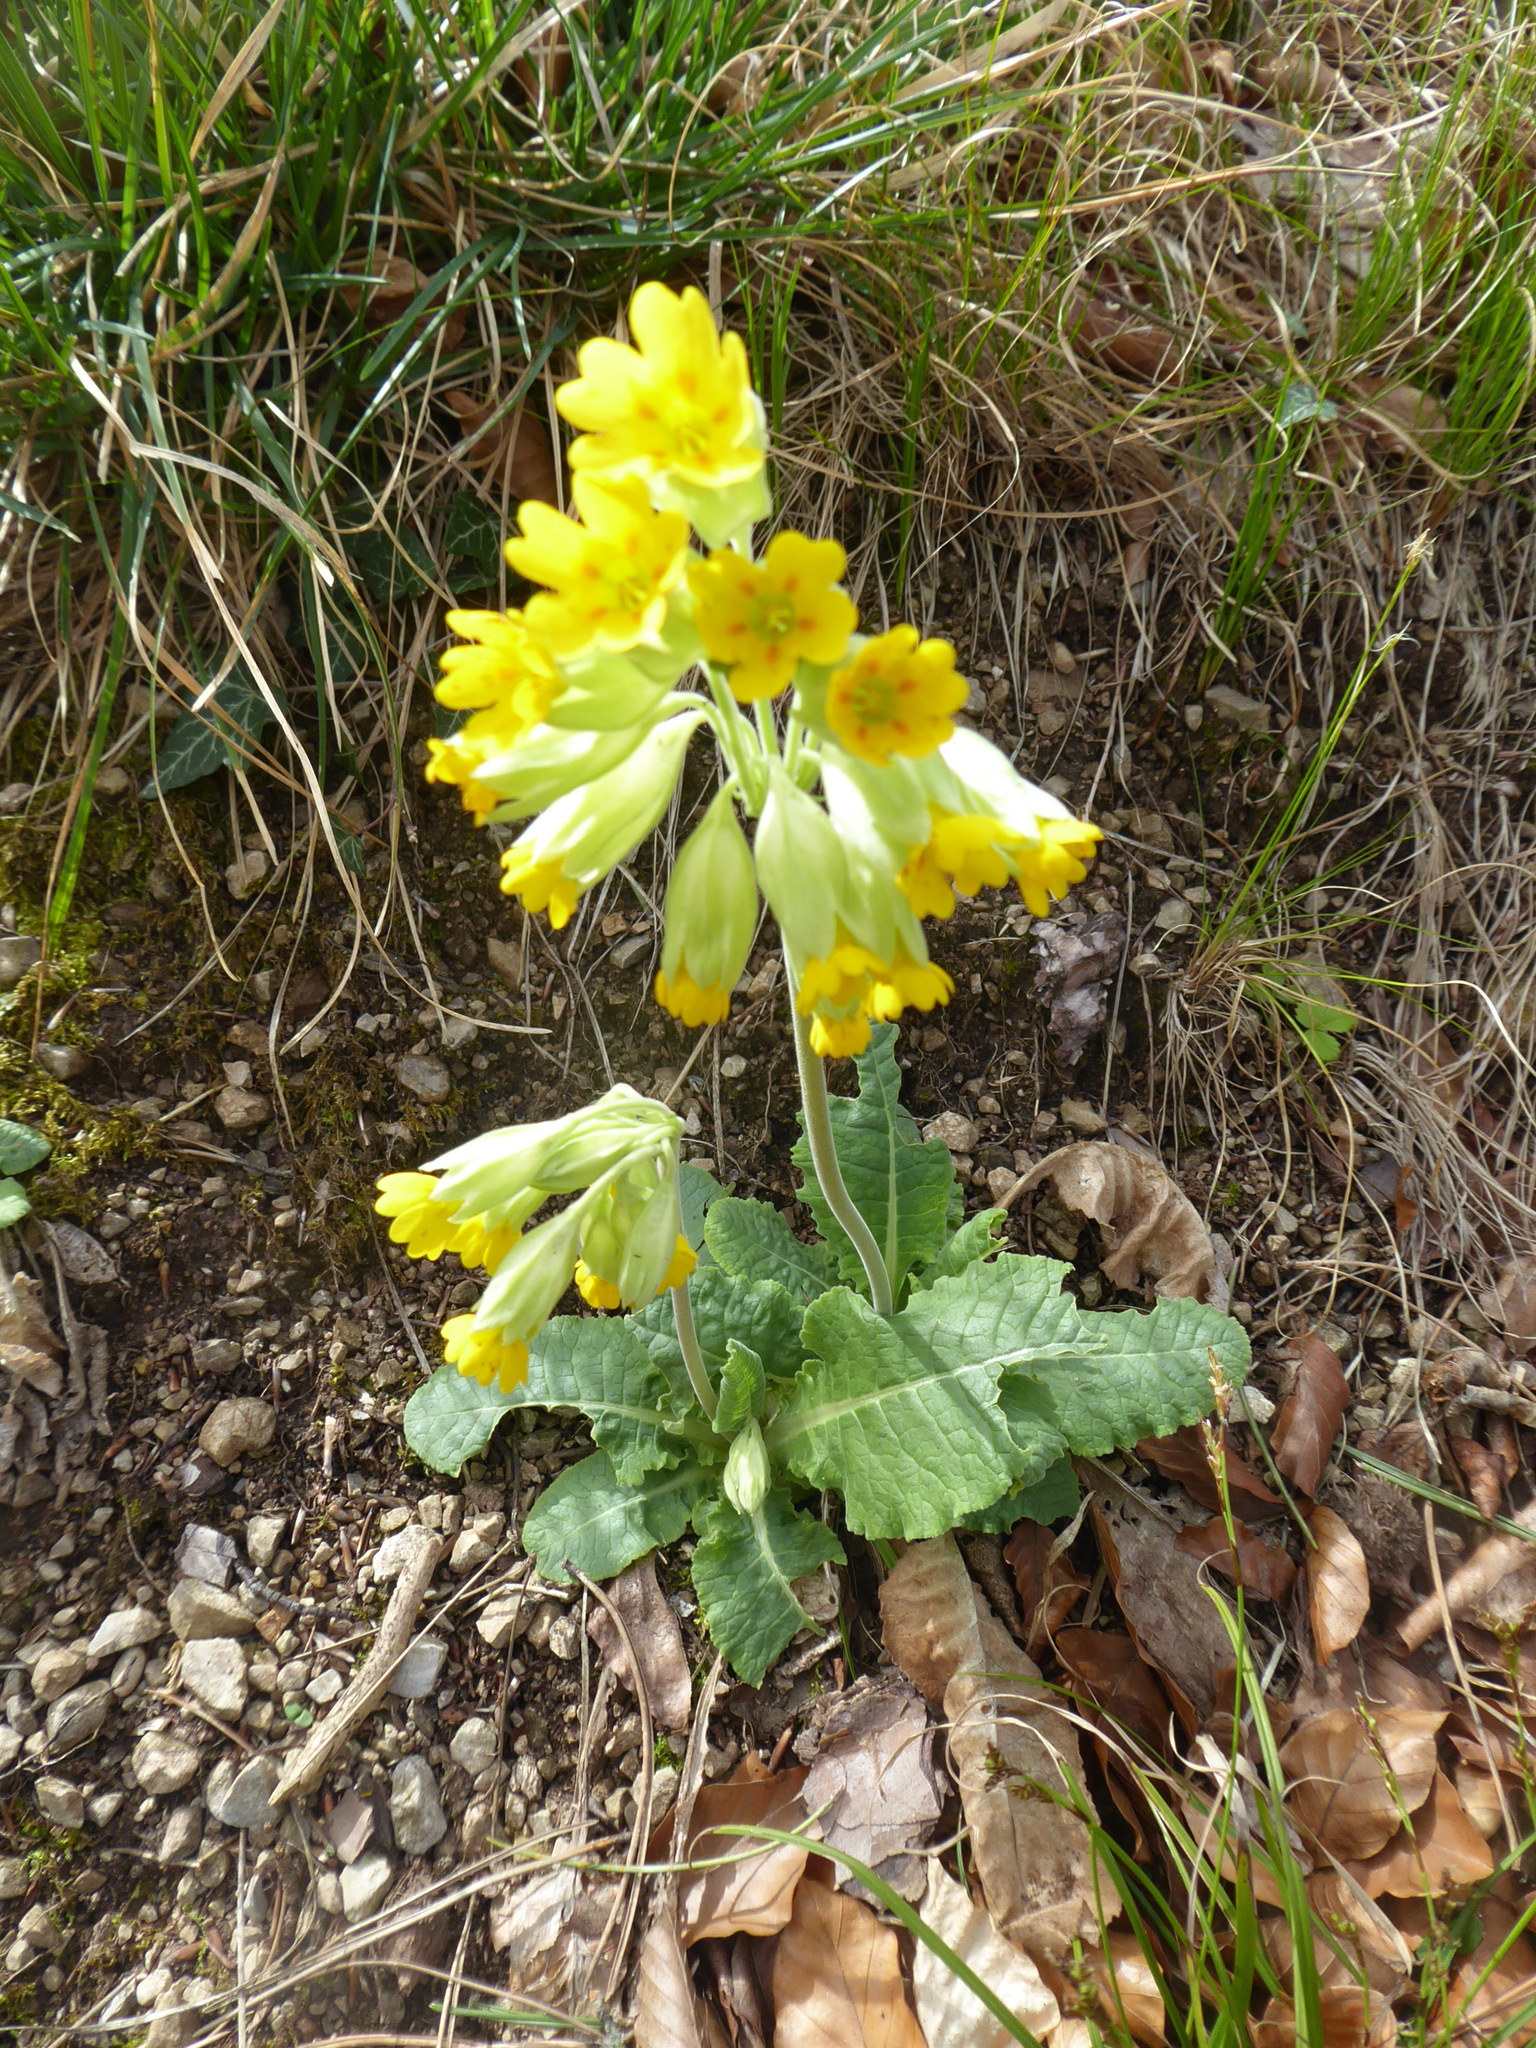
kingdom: Plantae
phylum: Tracheophyta
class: Magnoliopsida
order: Ericales
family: Primulaceae
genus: Primula
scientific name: Primula veris
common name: Cowslip
